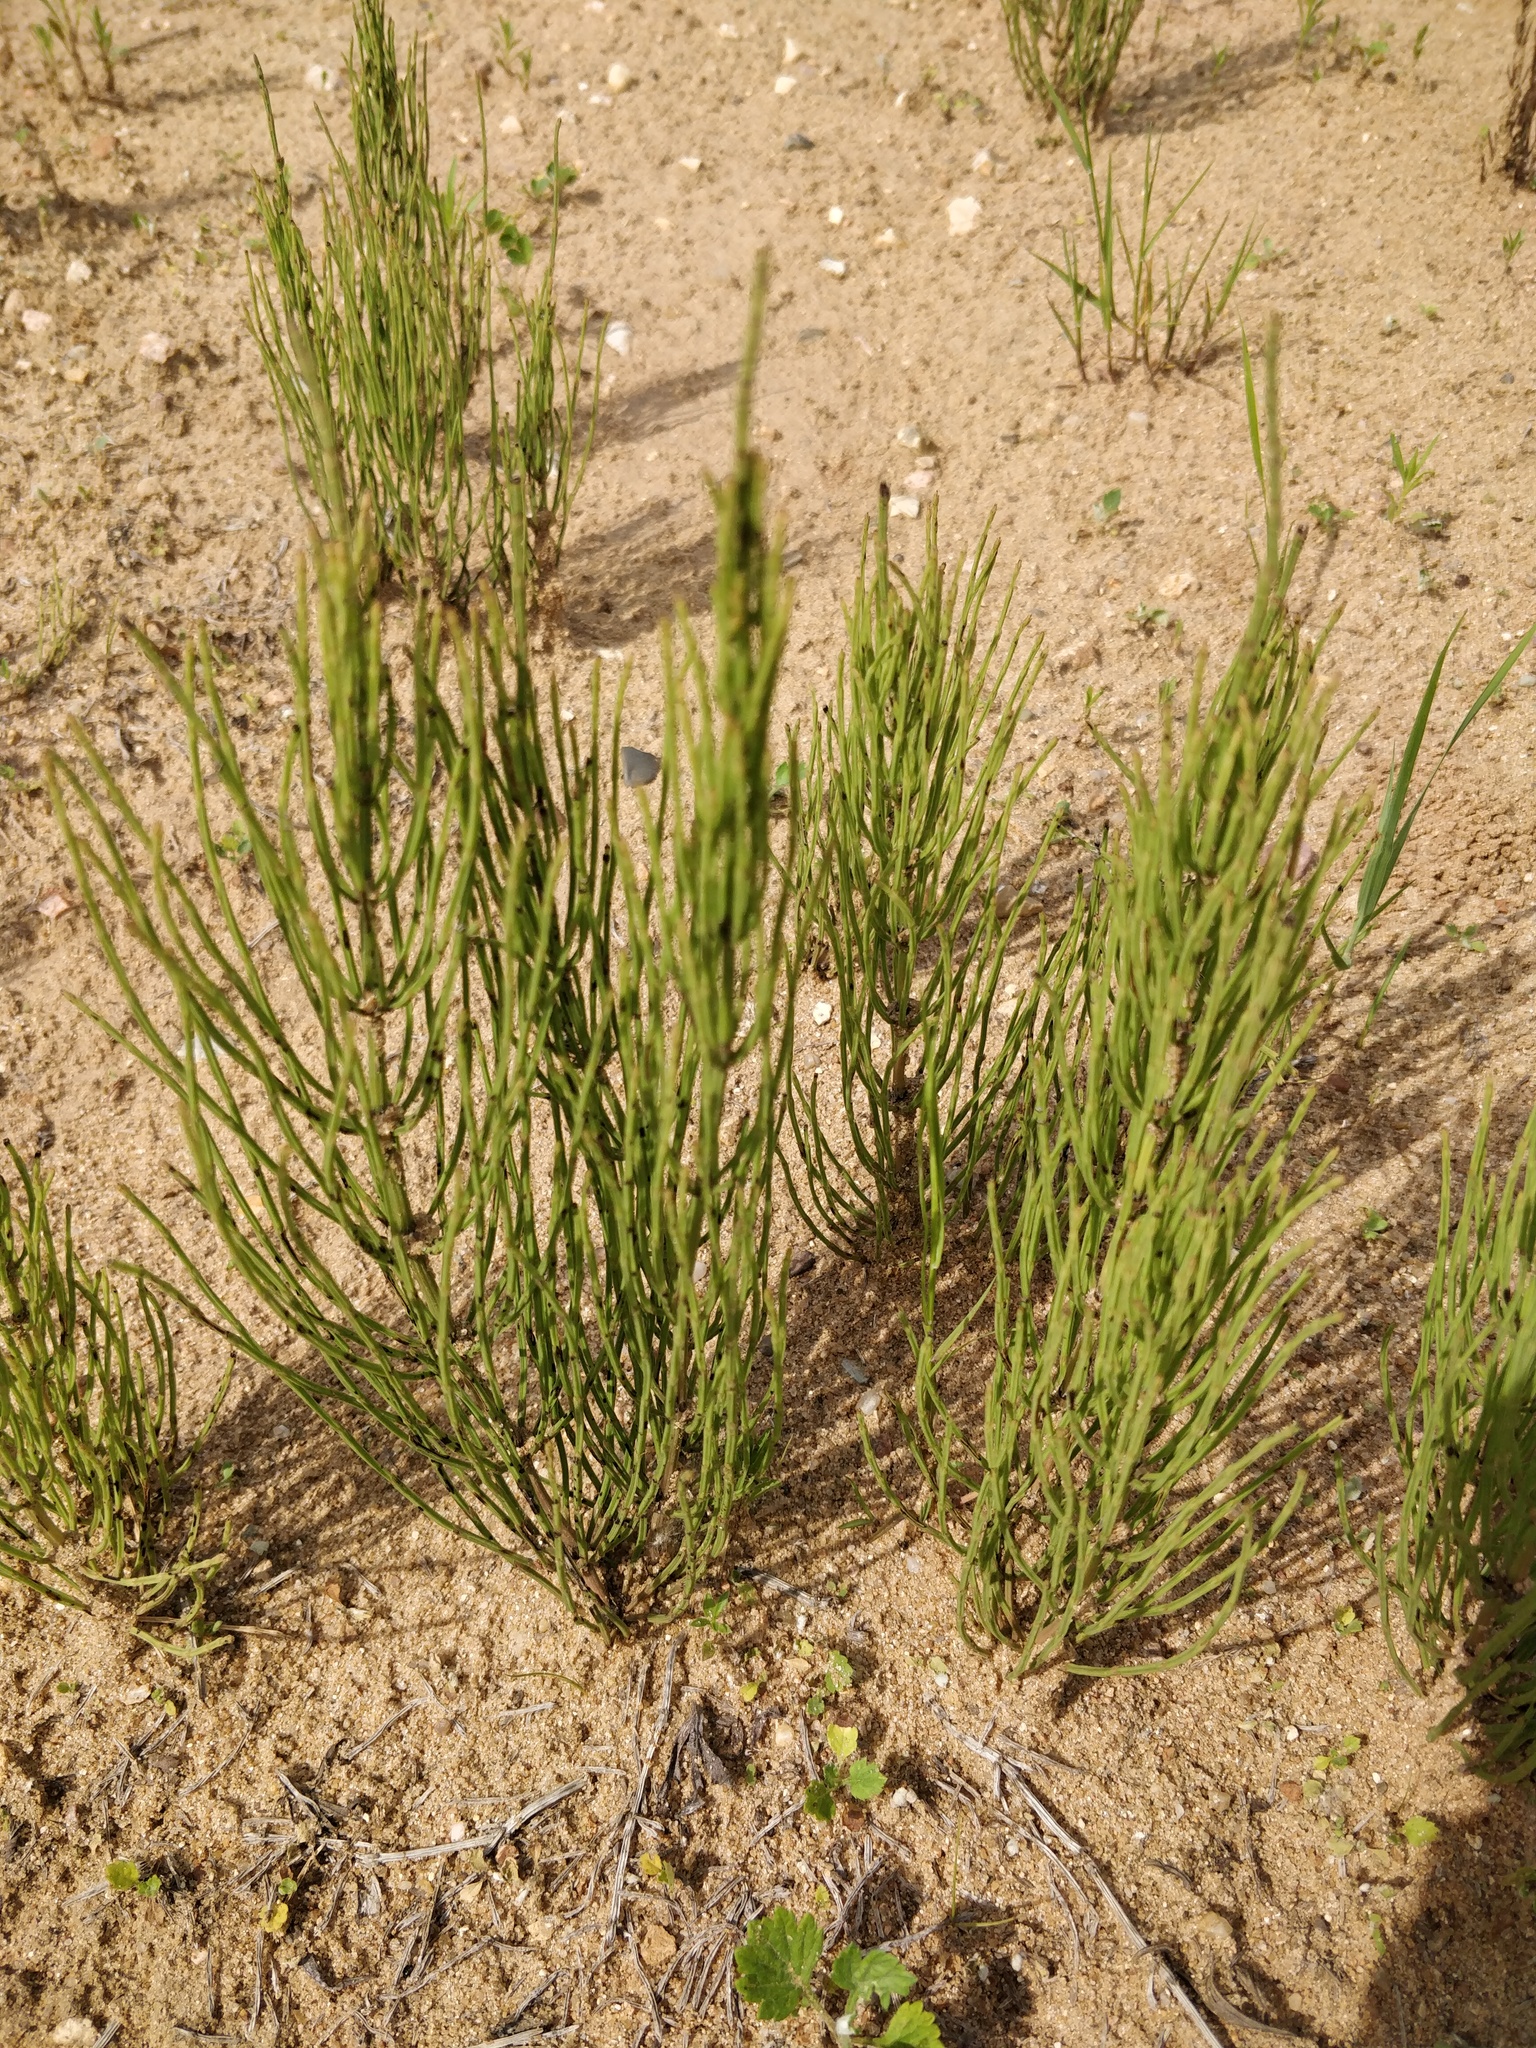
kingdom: Plantae
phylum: Tracheophyta
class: Polypodiopsida
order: Equisetales
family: Equisetaceae
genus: Equisetum
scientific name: Equisetum arvense
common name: Field horsetail
